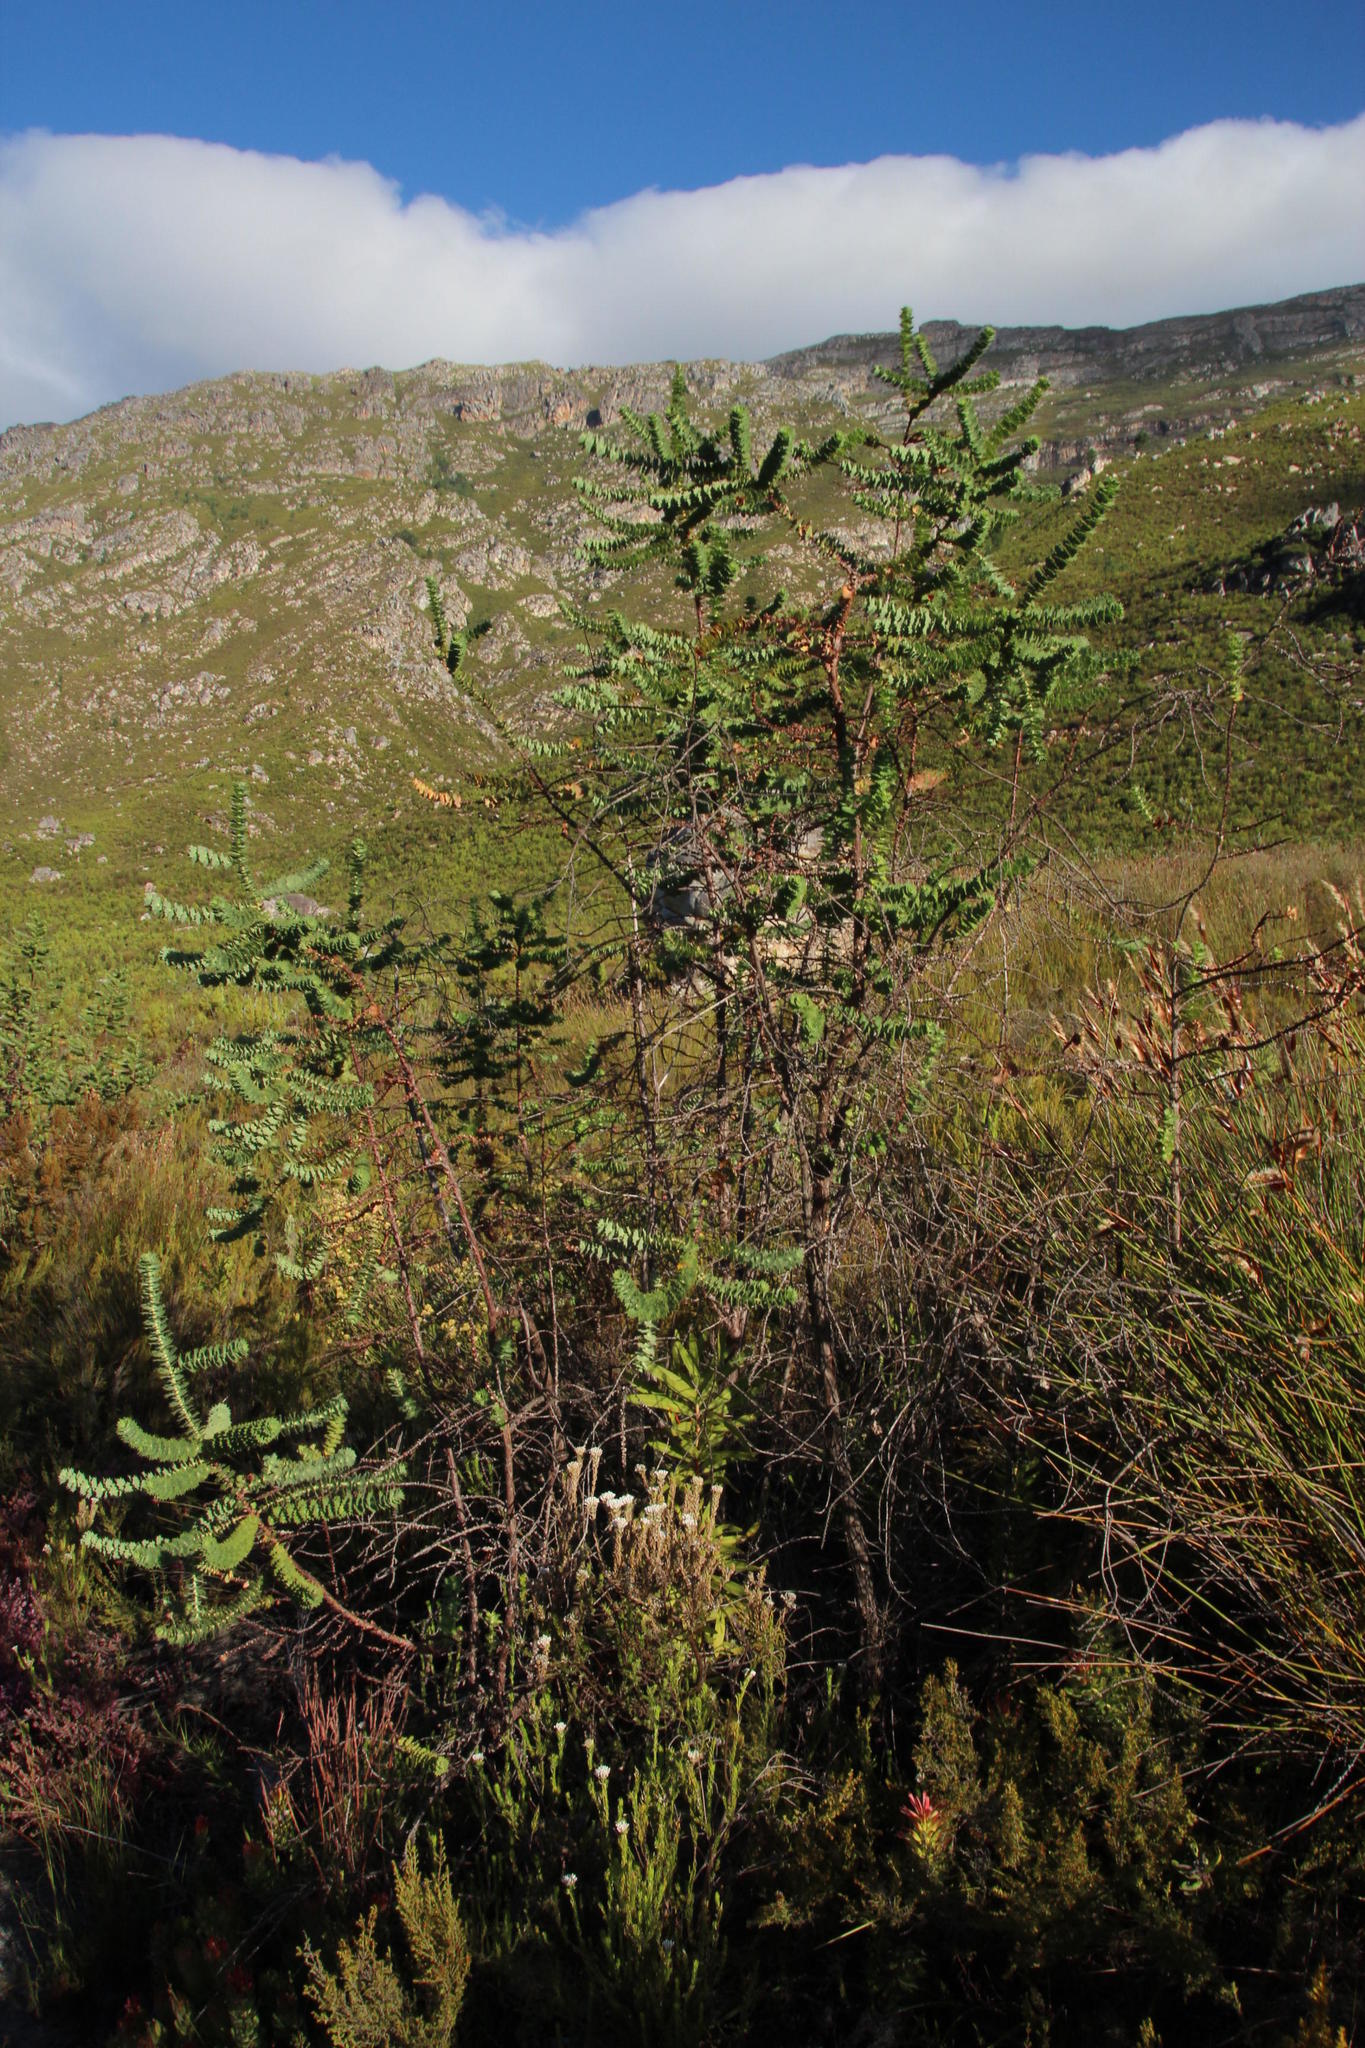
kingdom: Plantae
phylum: Tracheophyta
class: Magnoliopsida
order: Rosales
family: Rosaceae
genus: Cliffortia
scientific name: Cliffortia reniformis
